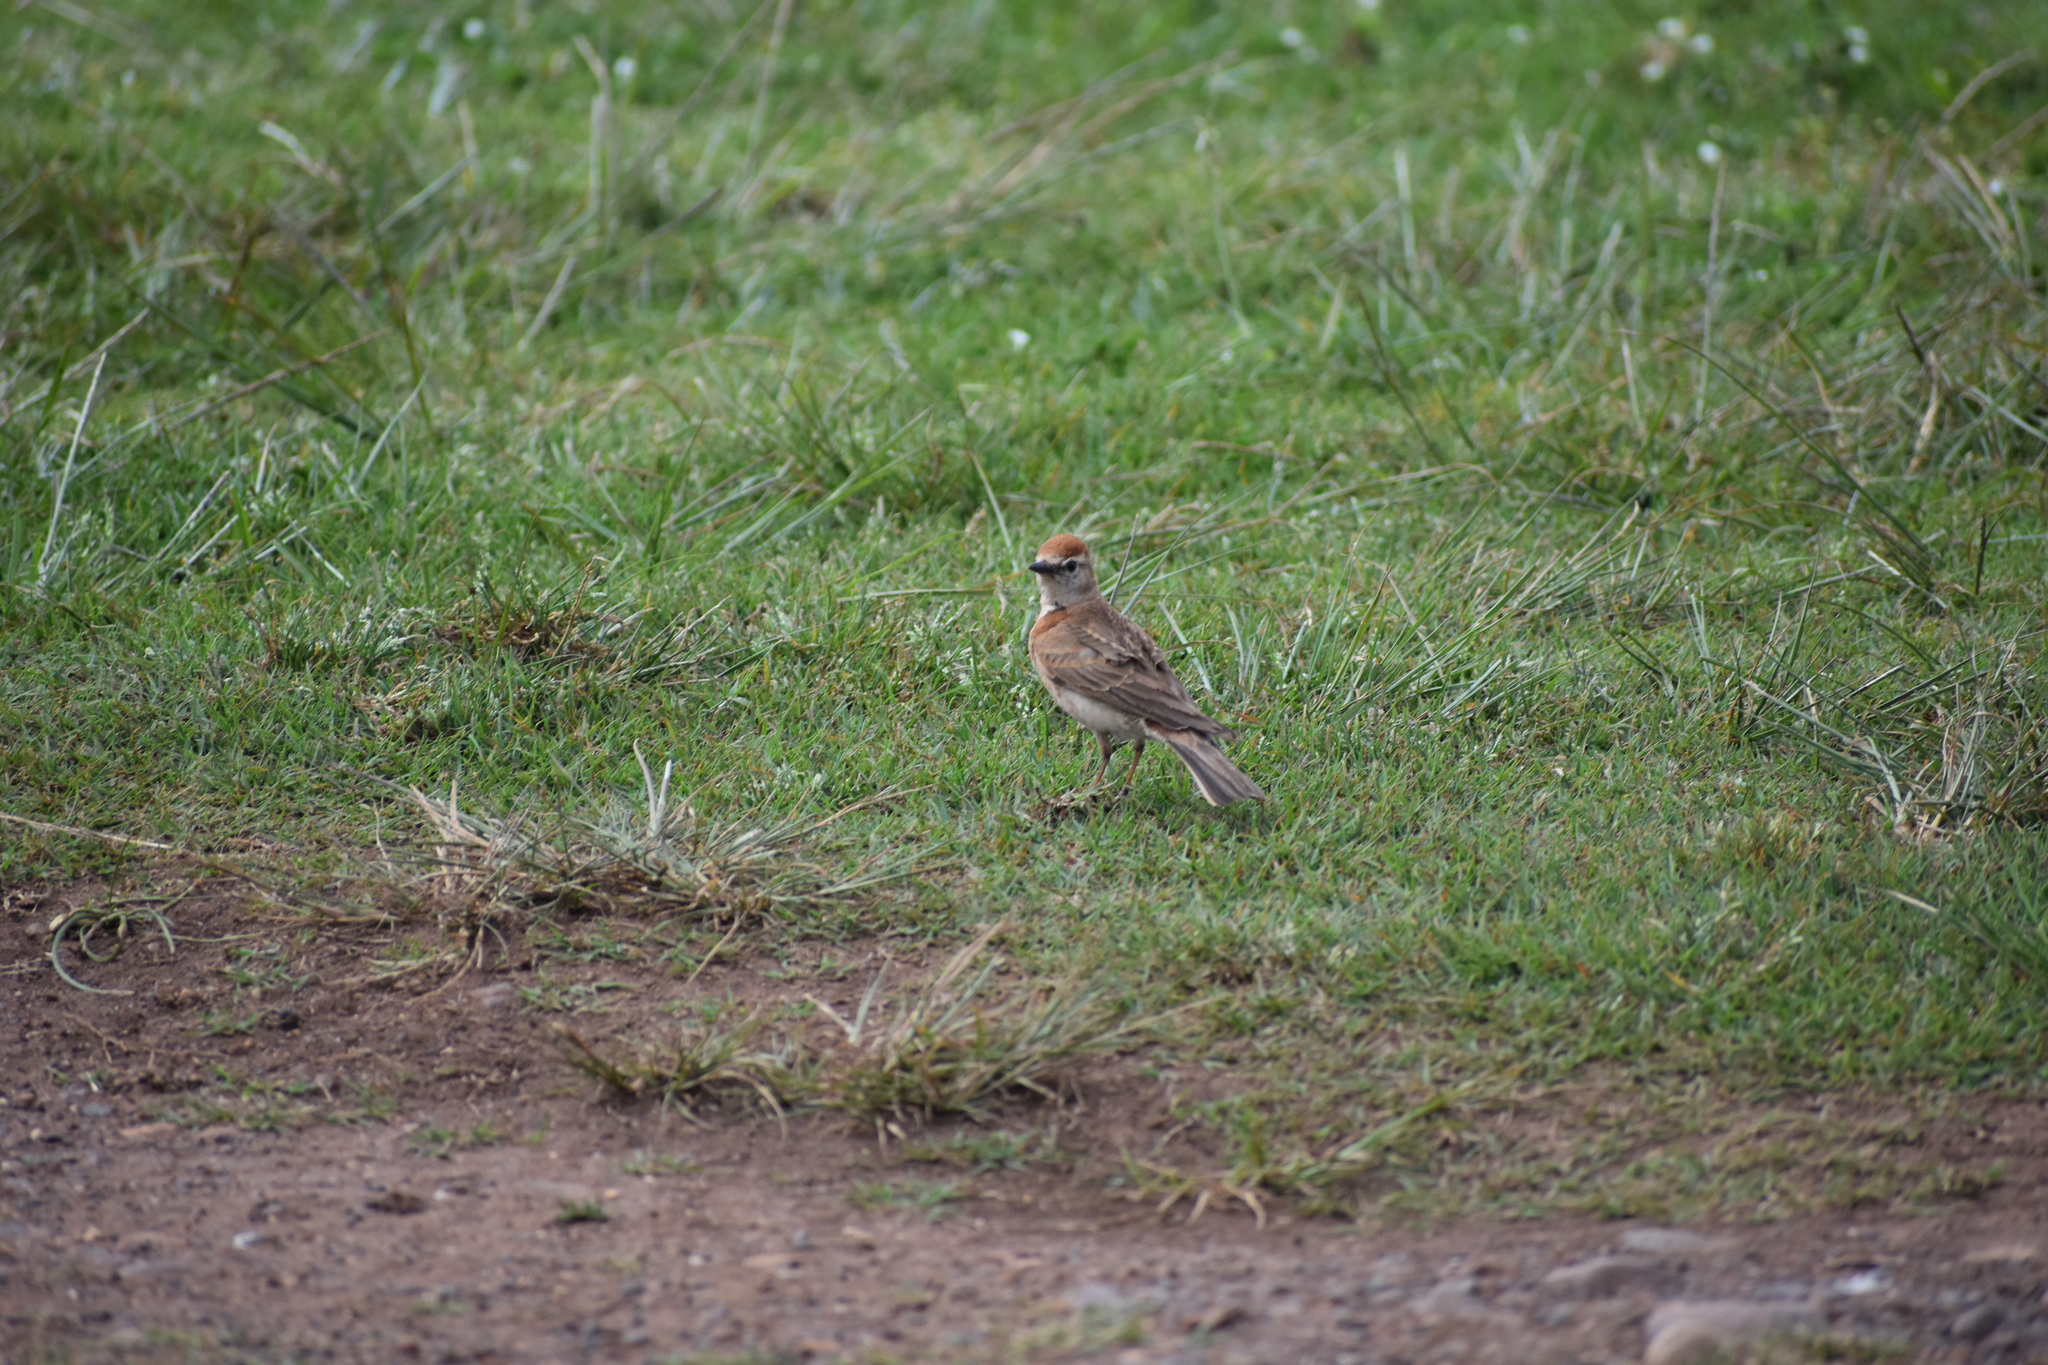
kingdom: Animalia
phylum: Chordata
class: Aves
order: Passeriformes
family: Alaudidae
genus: Calandrella
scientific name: Calandrella cinerea
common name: Red-capped lark
